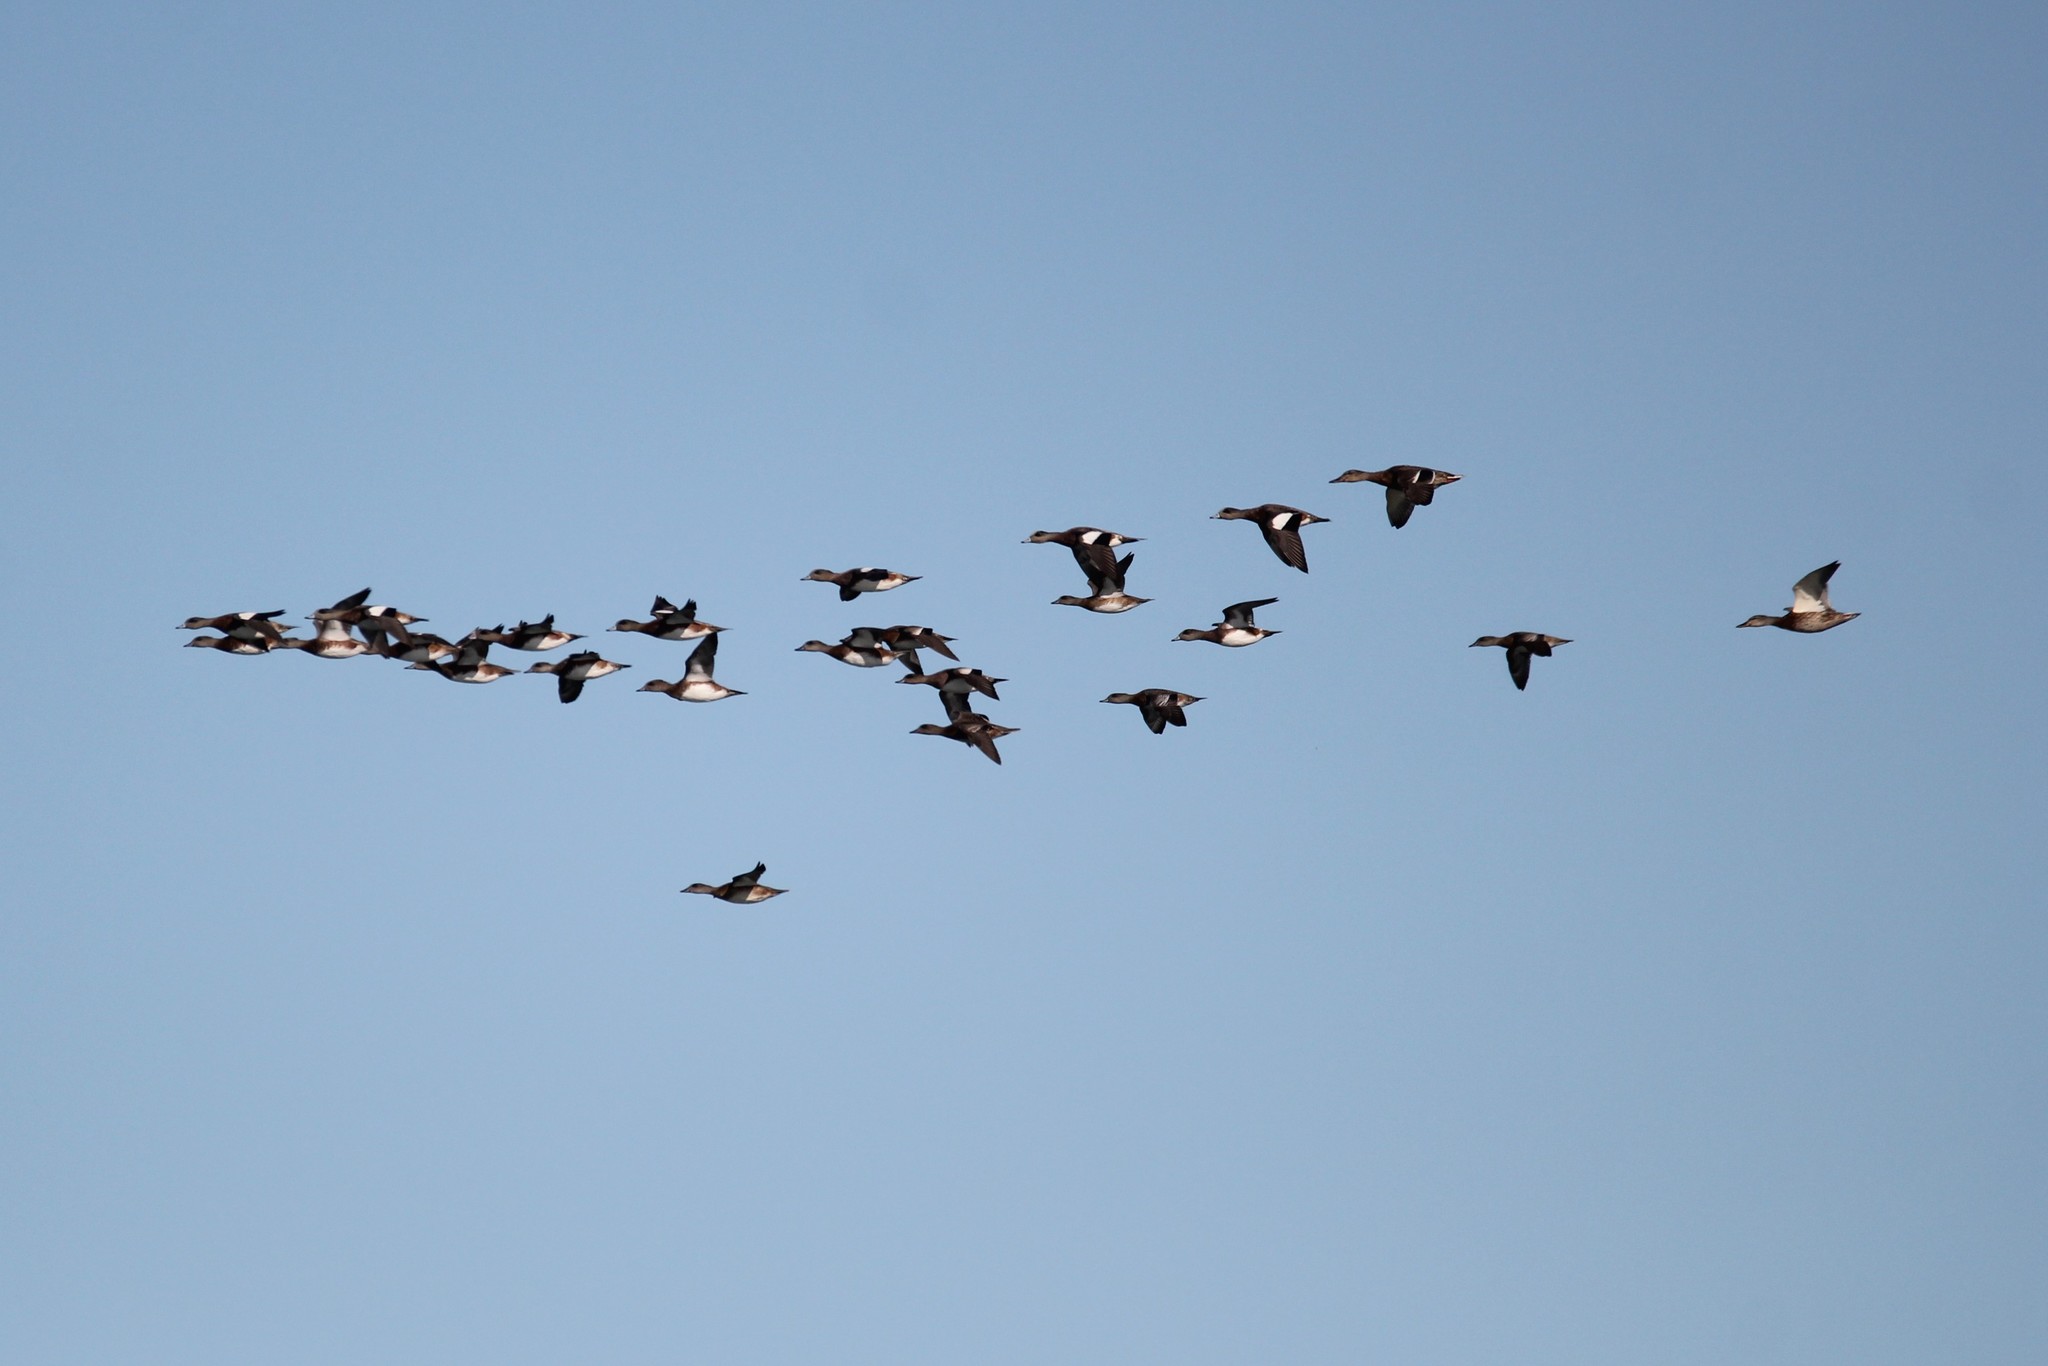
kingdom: Animalia
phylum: Chordata
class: Aves
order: Anseriformes
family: Anatidae
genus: Mareca
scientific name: Mareca americana
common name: American wigeon
